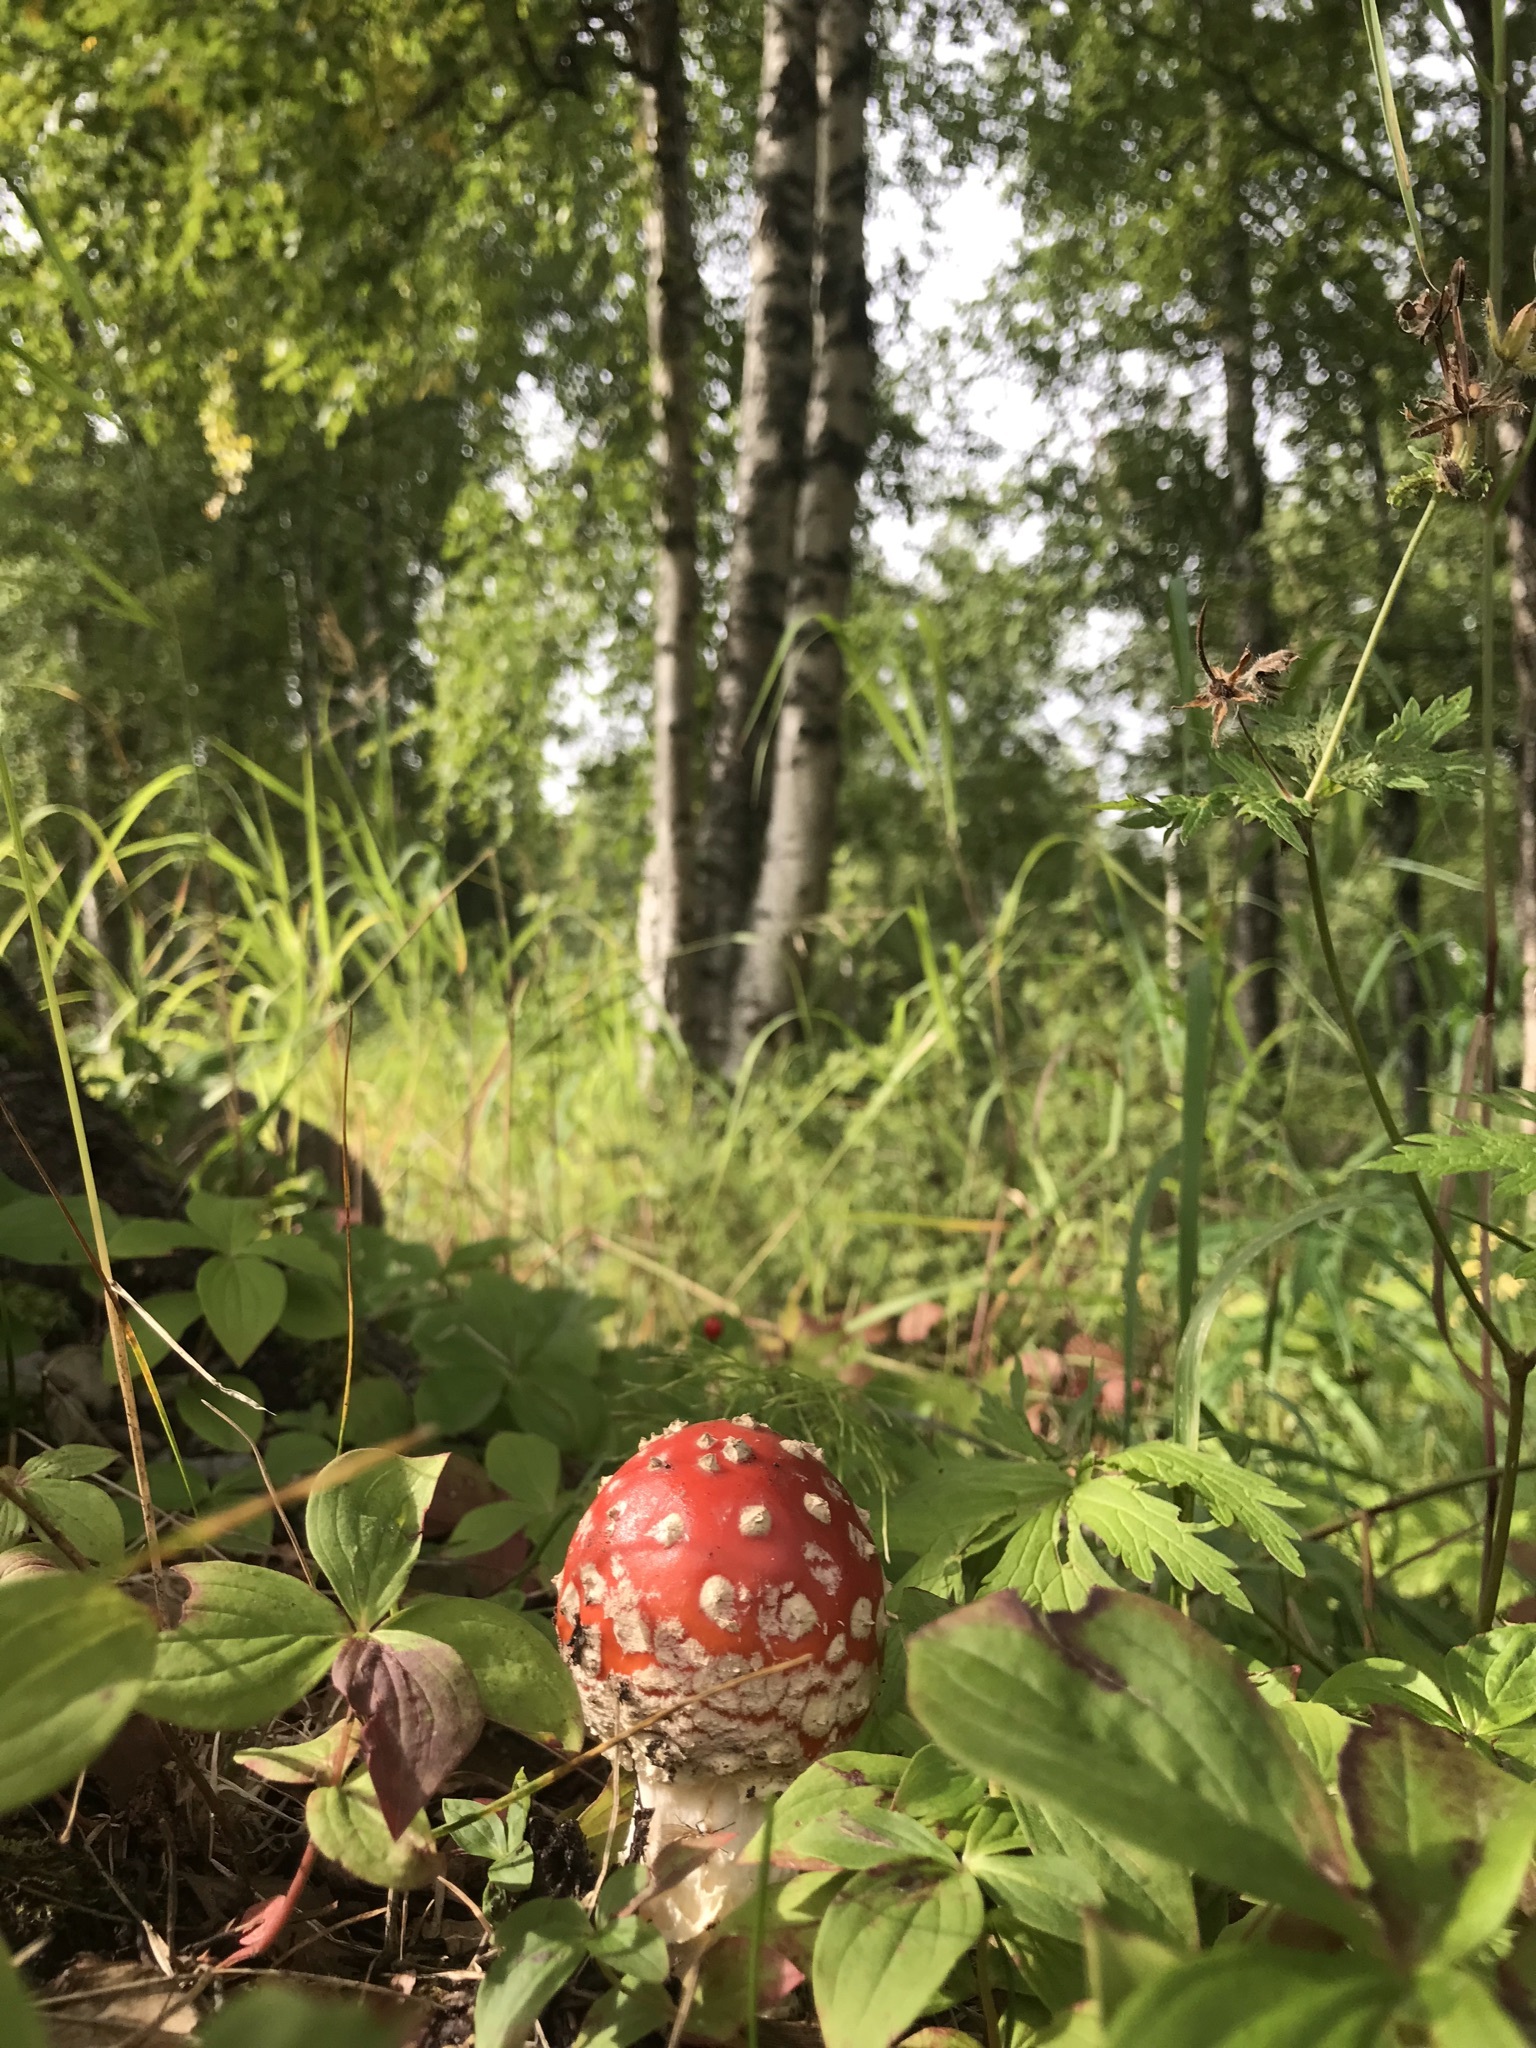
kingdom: Fungi
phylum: Basidiomycota
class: Agaricomycetes
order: Agaricales
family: Amanitaceae
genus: Amanita
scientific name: Amanita muscaria
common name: Fly agaric
